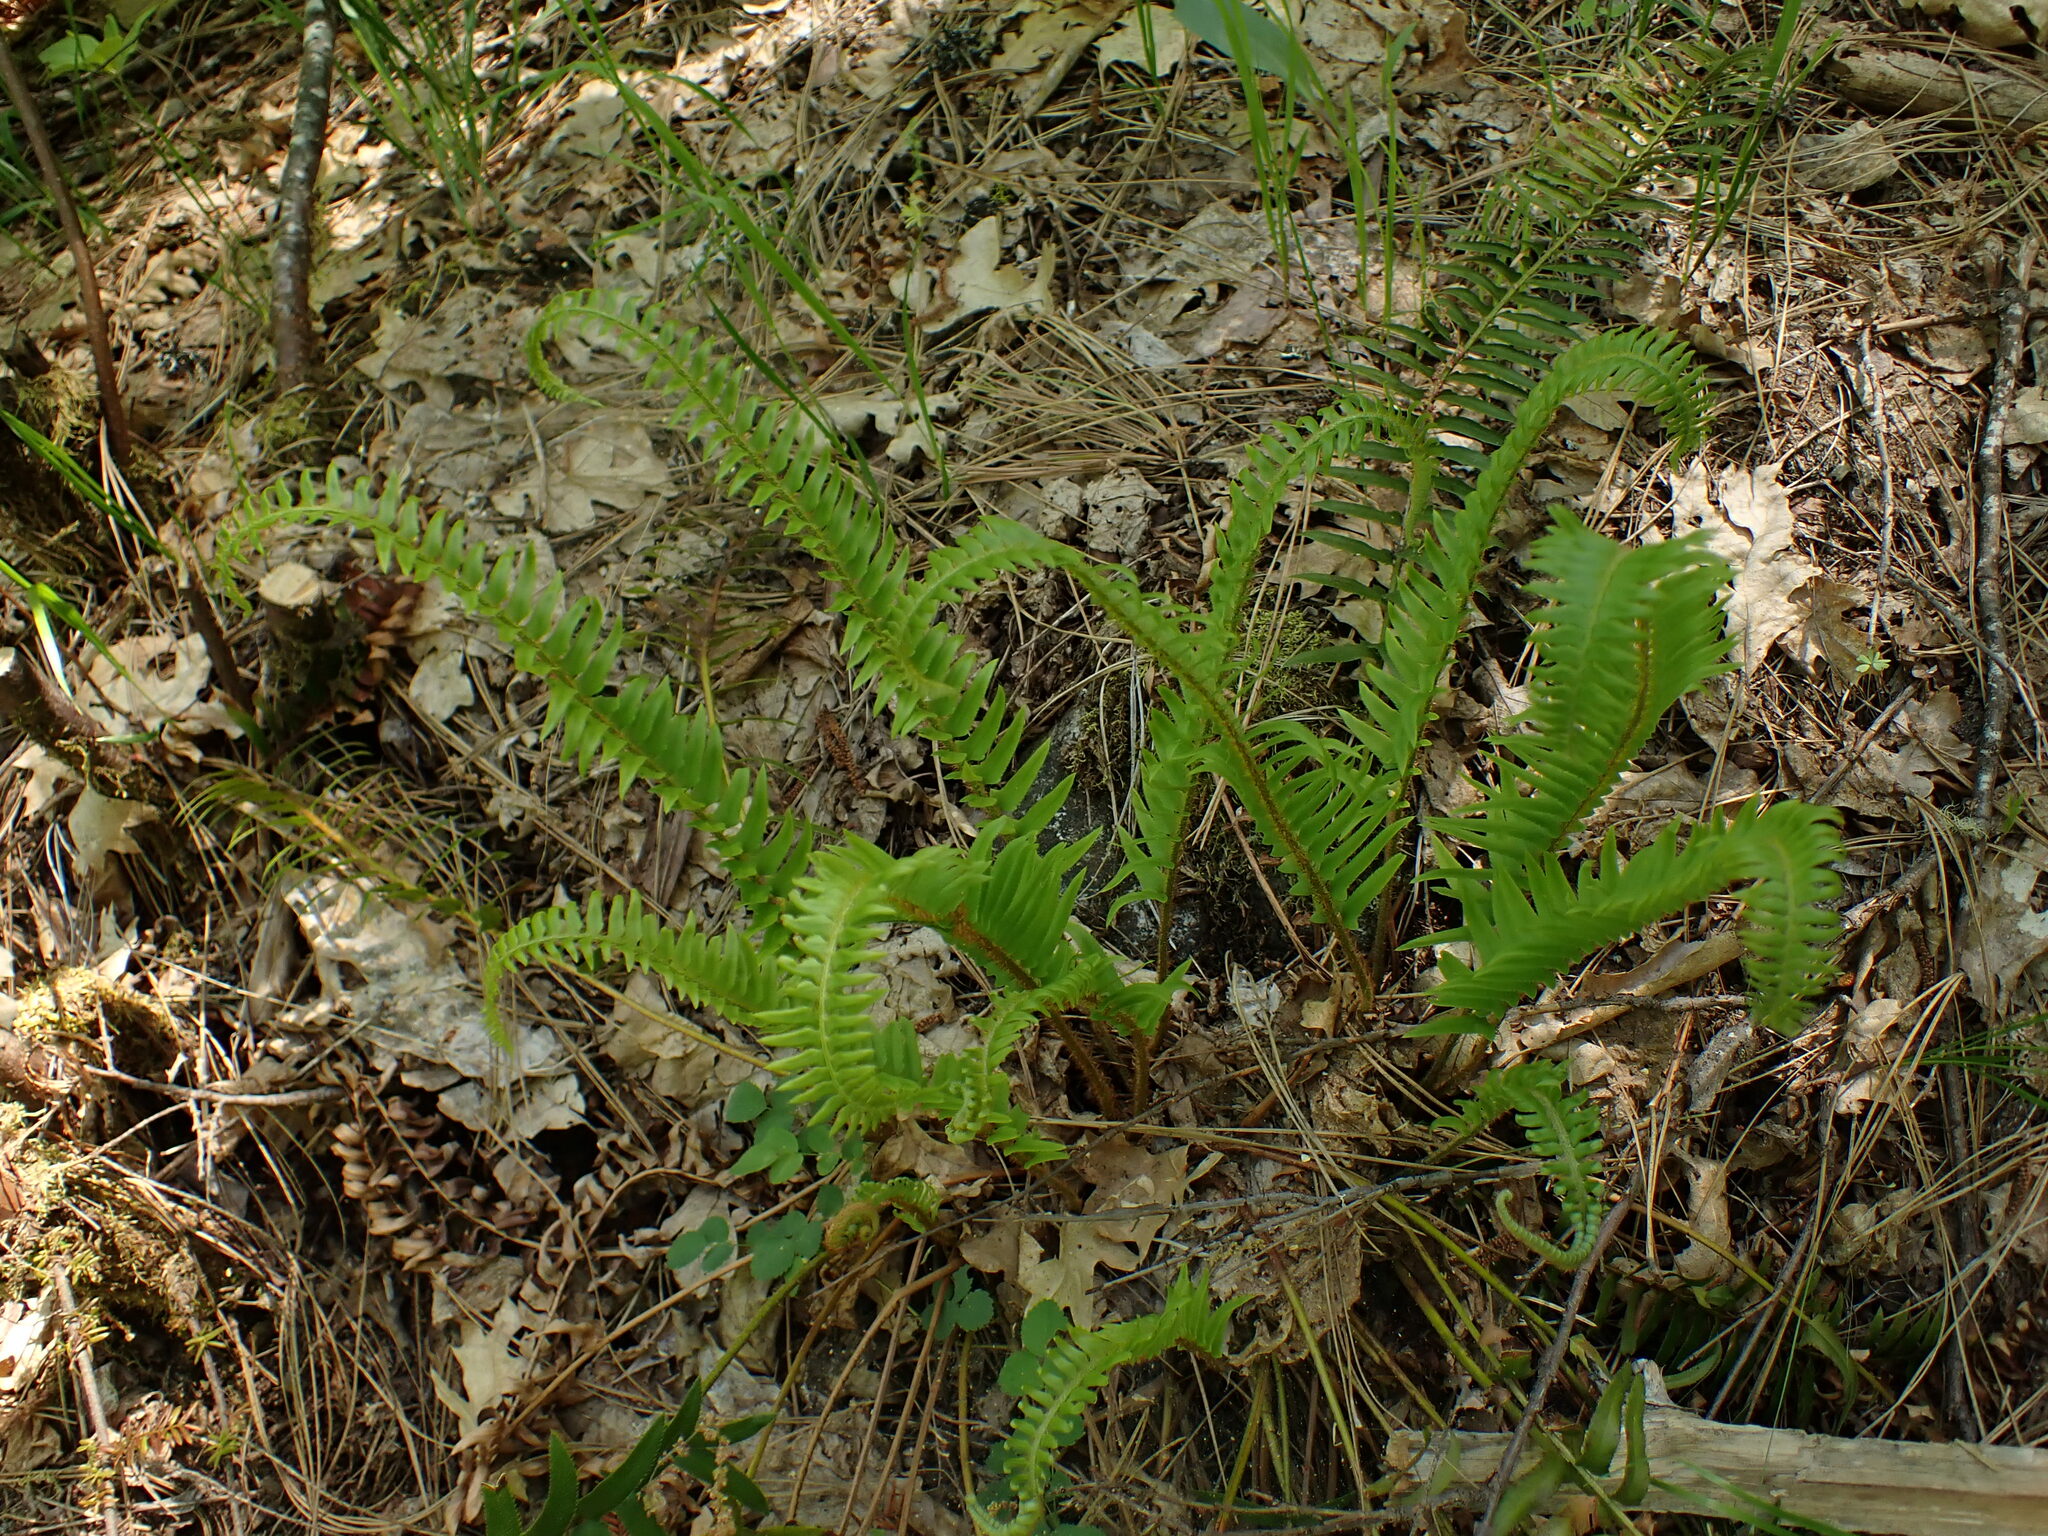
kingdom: Plantae
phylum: Tracheophyta
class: Polypodiopsida
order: Polypodiales
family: Dryopteridaceae
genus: Polystichum
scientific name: Polystichum imbricans
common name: Dwarf western sword fern
